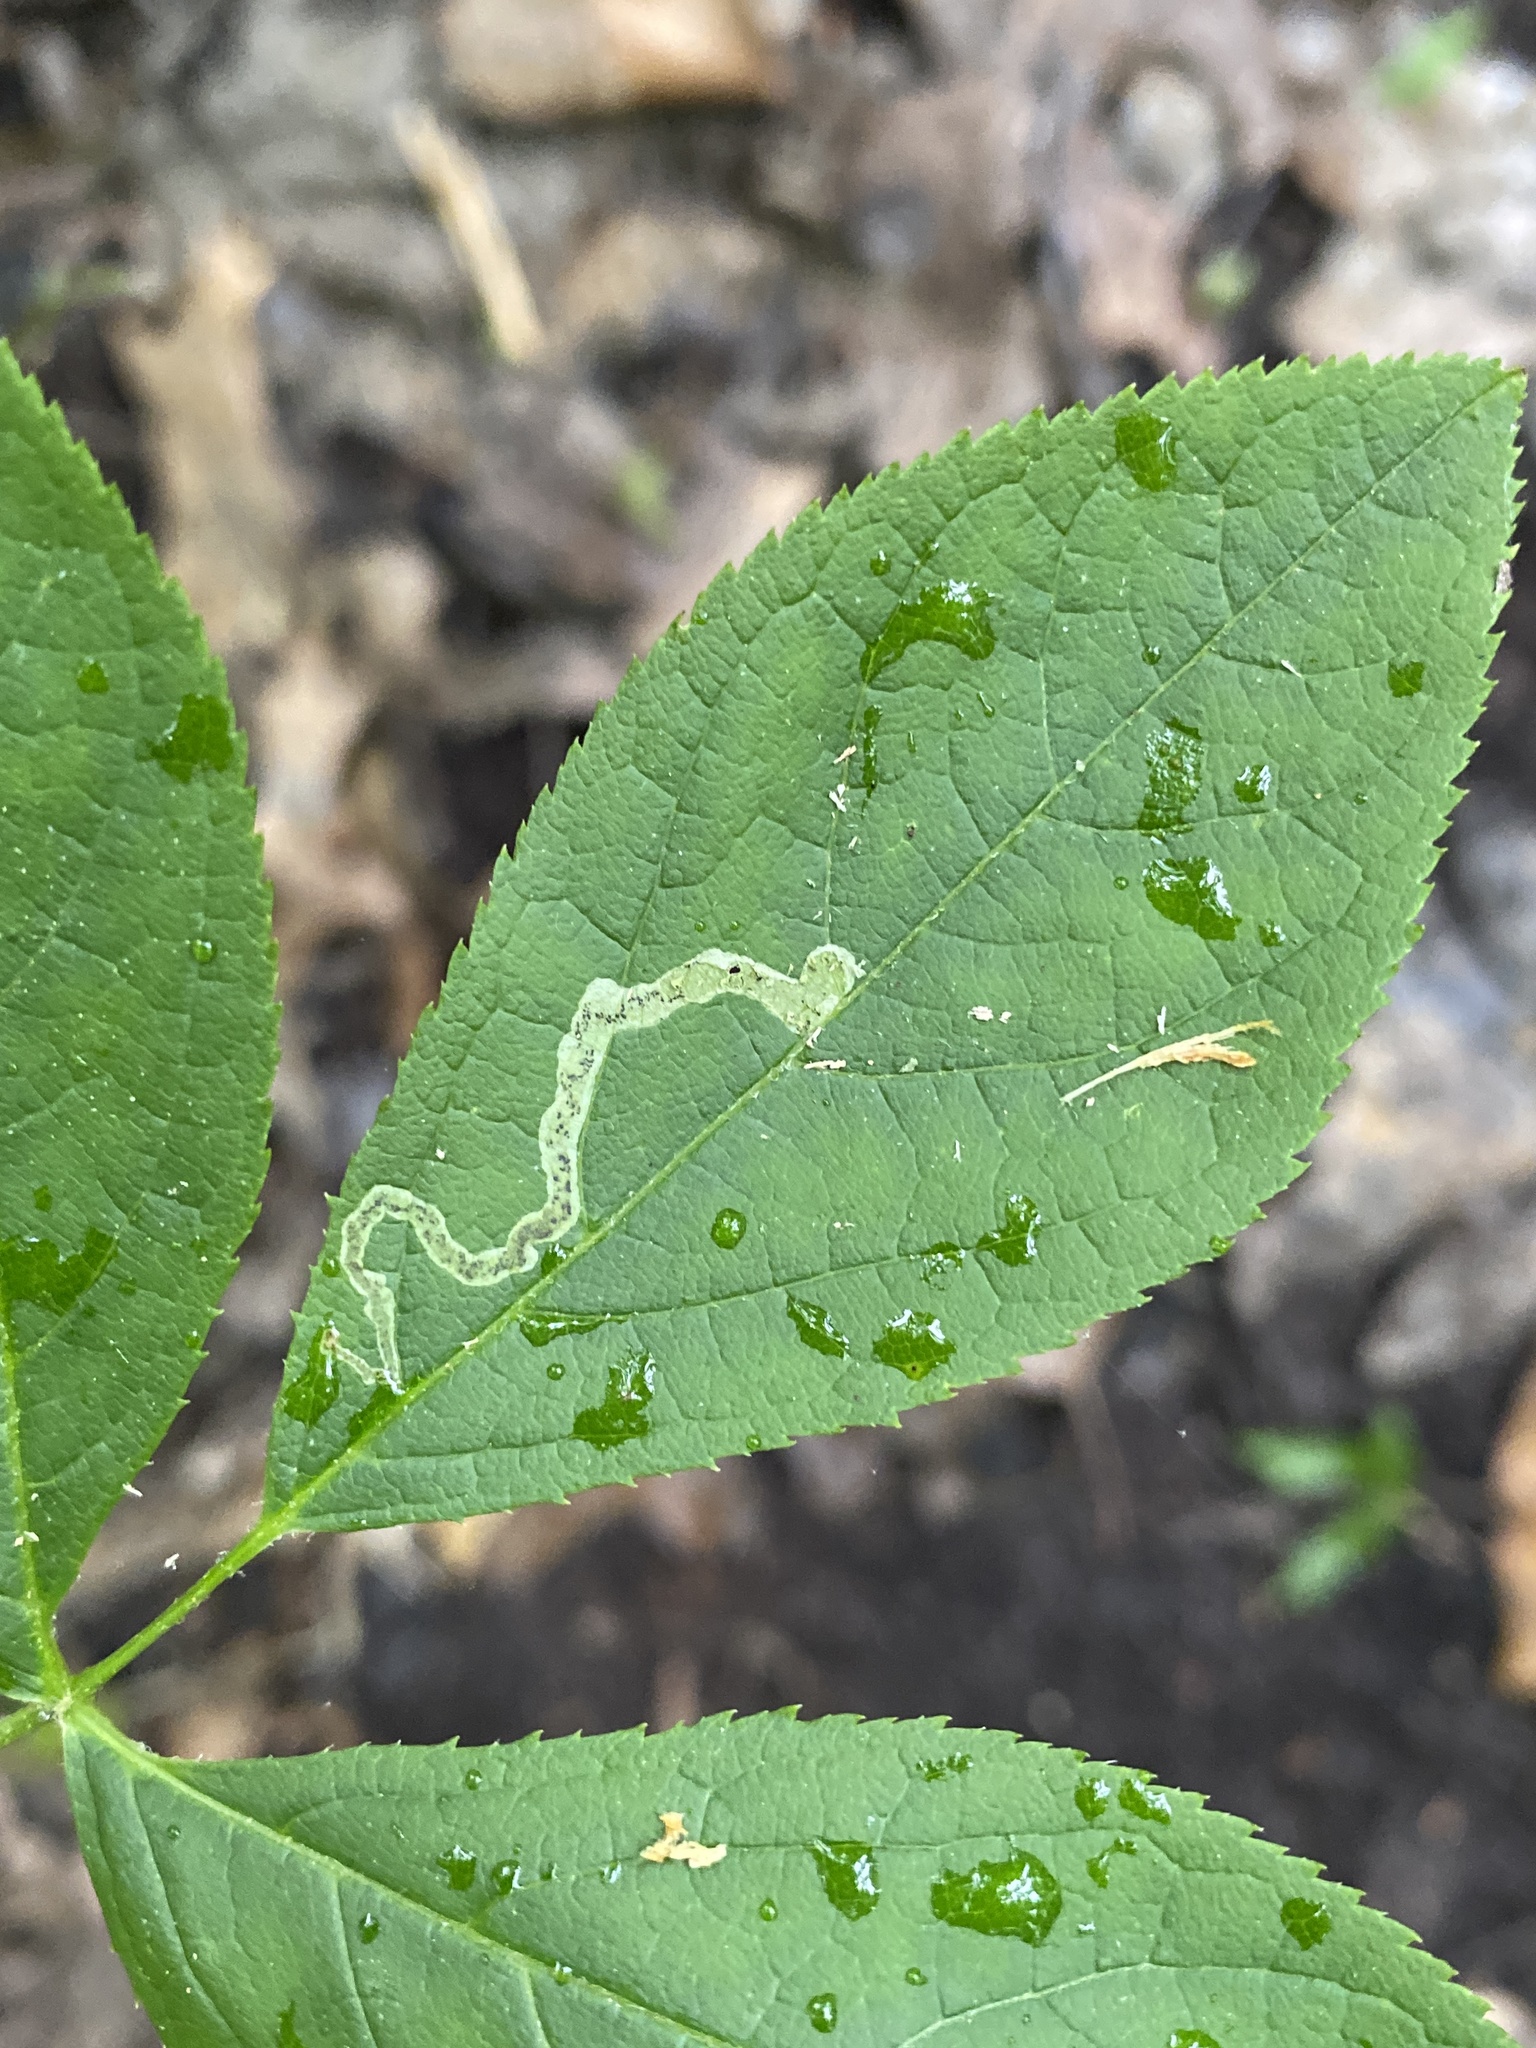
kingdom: Animalia
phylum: Arthropoda
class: Insecta
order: Diptera
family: Agromyzidae
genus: Phytomyza
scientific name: Phytomyza aralivora
